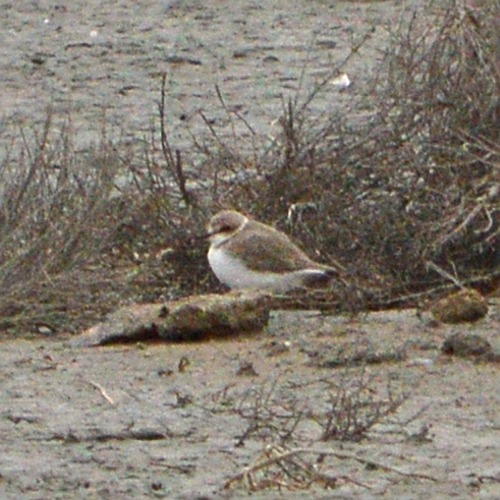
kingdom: Animalia
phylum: Chordata
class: Aves
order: Charadriiformes
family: Charadriidae
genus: Charadrius
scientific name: Charadrius alexandrinus
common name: Kentish plover
